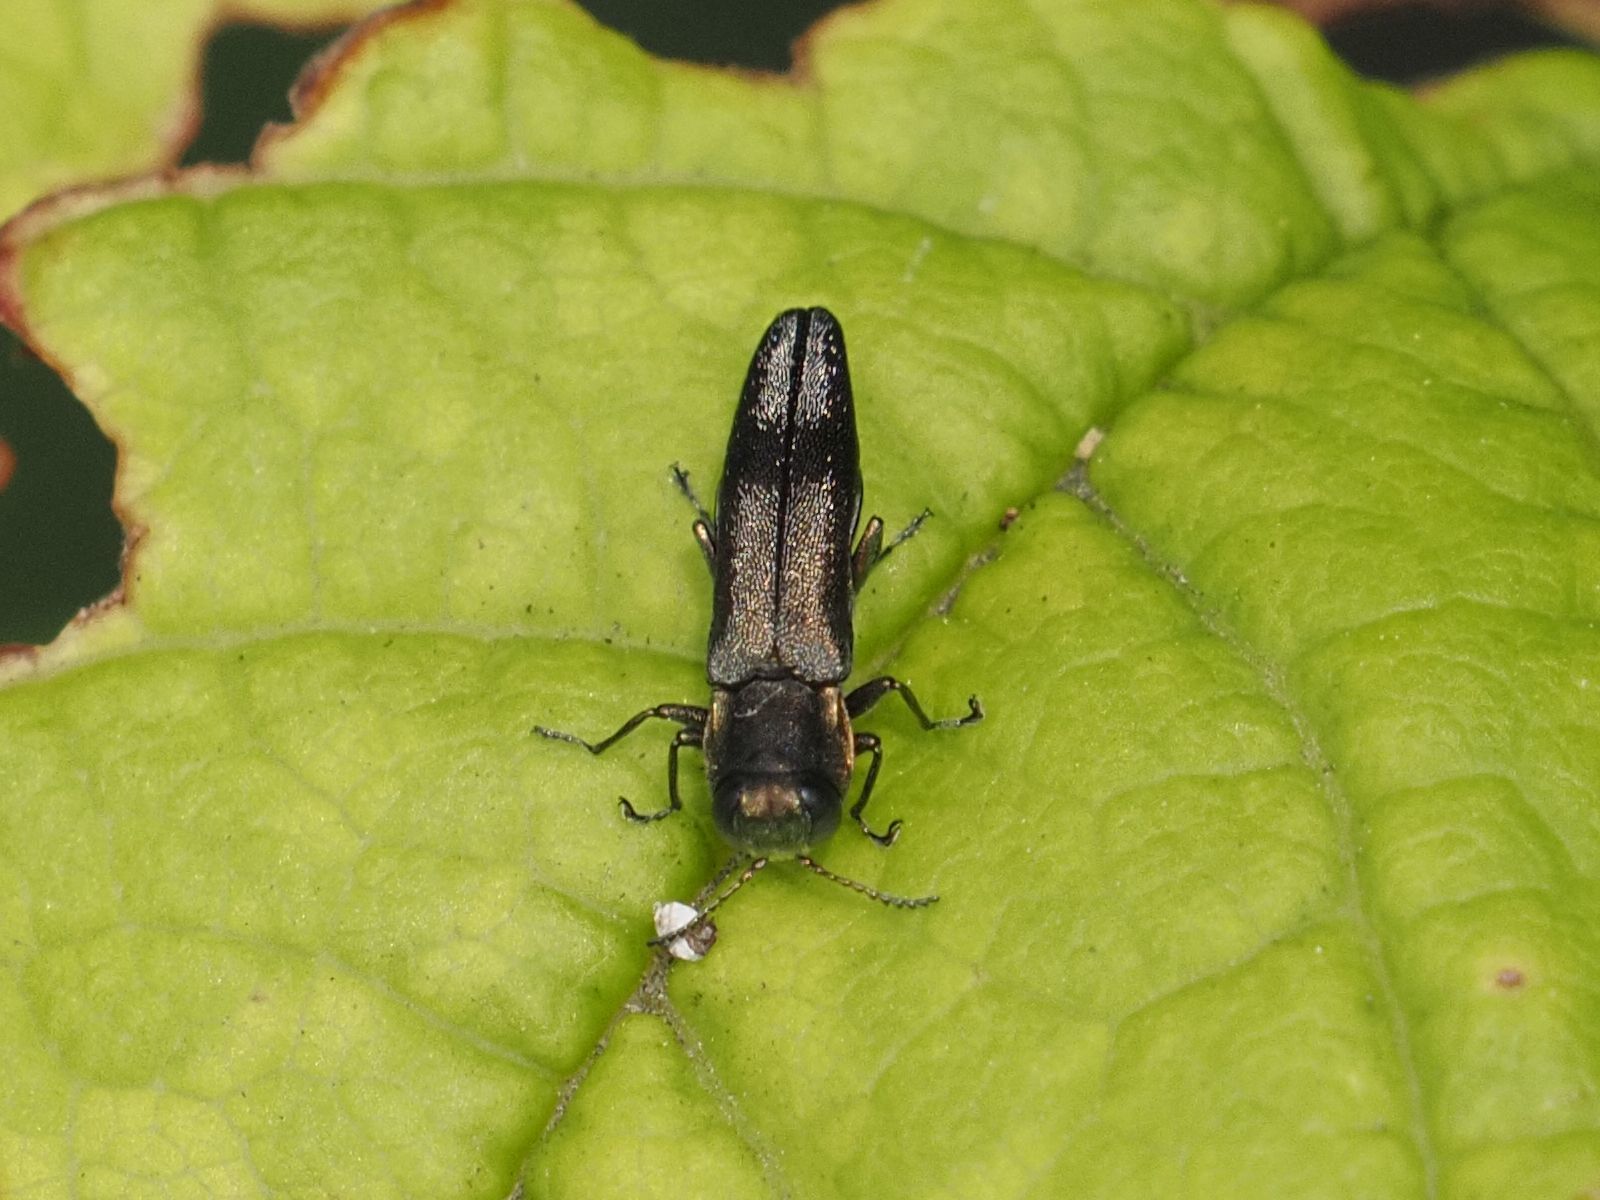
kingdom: Animalia
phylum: Arthropoda
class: Insecta
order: Coleoptera
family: Buprestidae
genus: Agrilus
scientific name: Agrilus derasofasciatus
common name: Metallic wood-boring beetle
